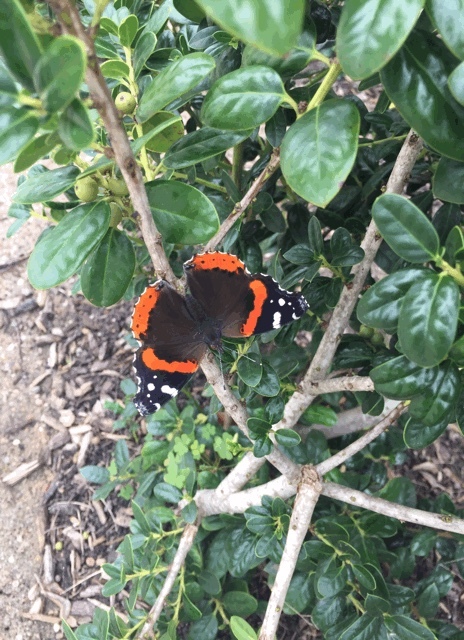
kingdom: Animalia
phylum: Arthropoda
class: Insecta
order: Lepidoptera
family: Nymphalidae
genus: Vanessa
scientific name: Vanessa atalanta
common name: Red admiral
